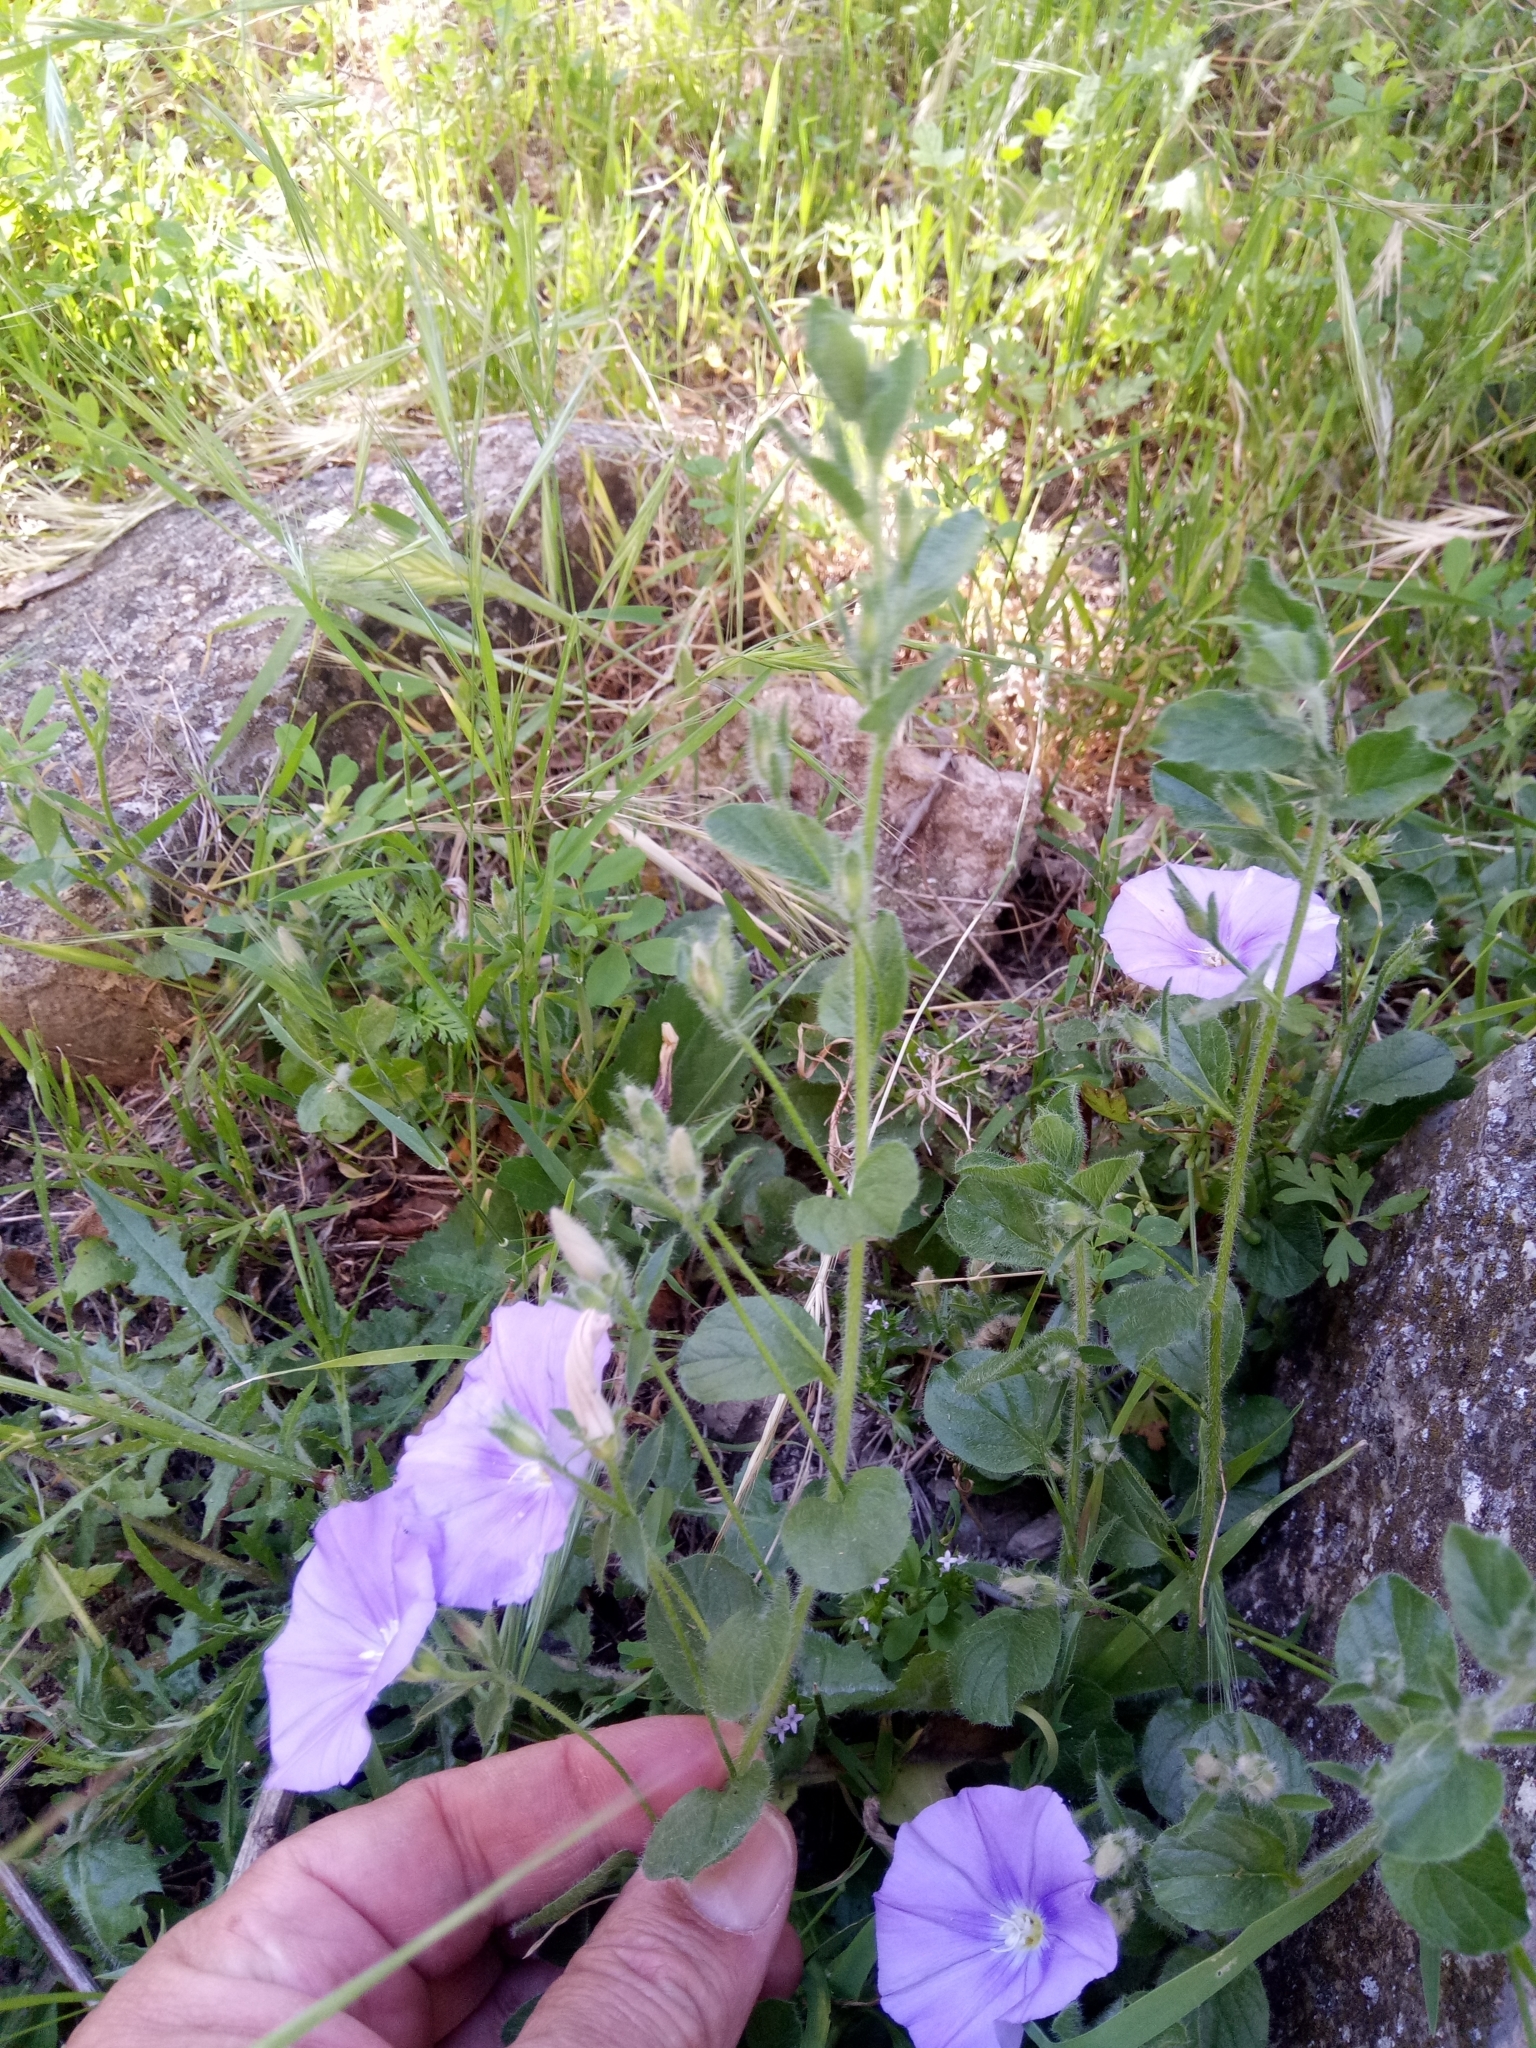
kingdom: Plantae
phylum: Tracheophyta
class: Magnoliopsida
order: Solanales
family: Convolvulaceae
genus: Convolvulus
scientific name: Convolvulus sabatius
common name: Ground blue-convolvulus
